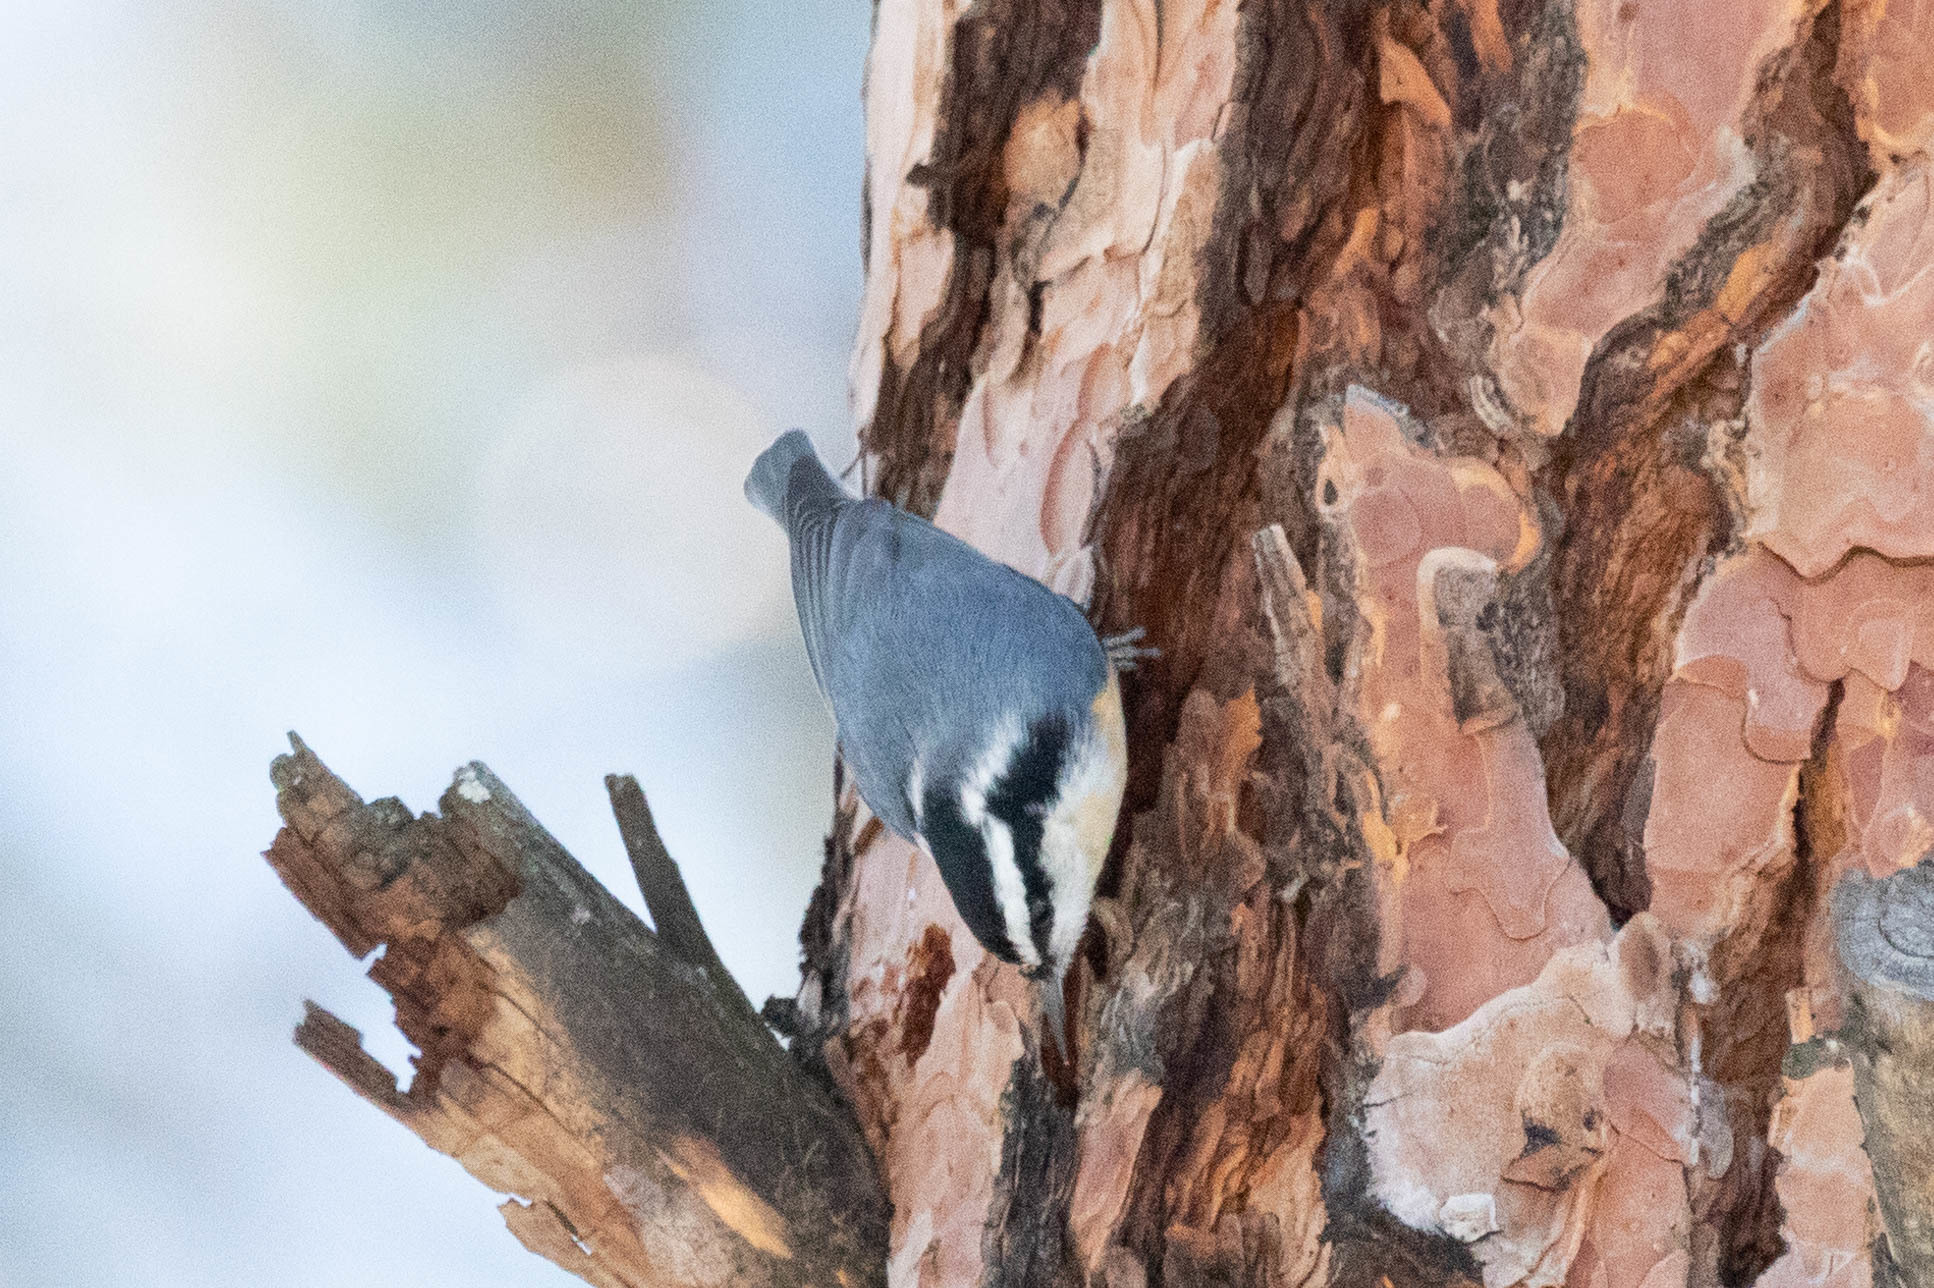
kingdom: Animalia
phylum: Chordata
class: Aves
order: Passeriformes
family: Sittidae
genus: Sitta
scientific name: Sitta canadensis
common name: Red-breasted nuthatch
